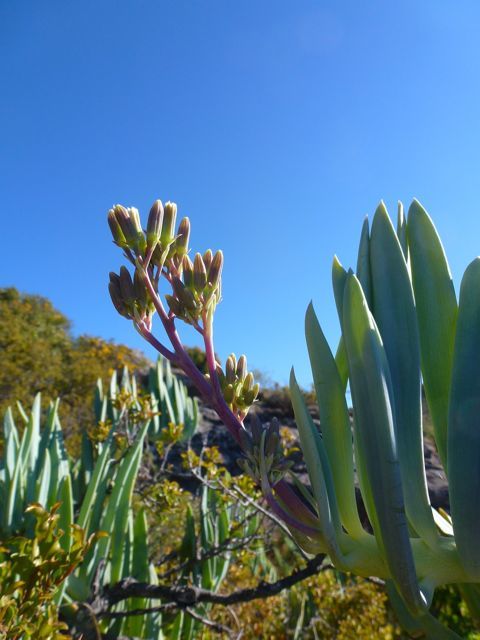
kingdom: Plantae
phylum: Tracheophyta
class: Magnoliopsida
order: Asterales
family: Asteraceae
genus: Curio
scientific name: Curio ficoides
